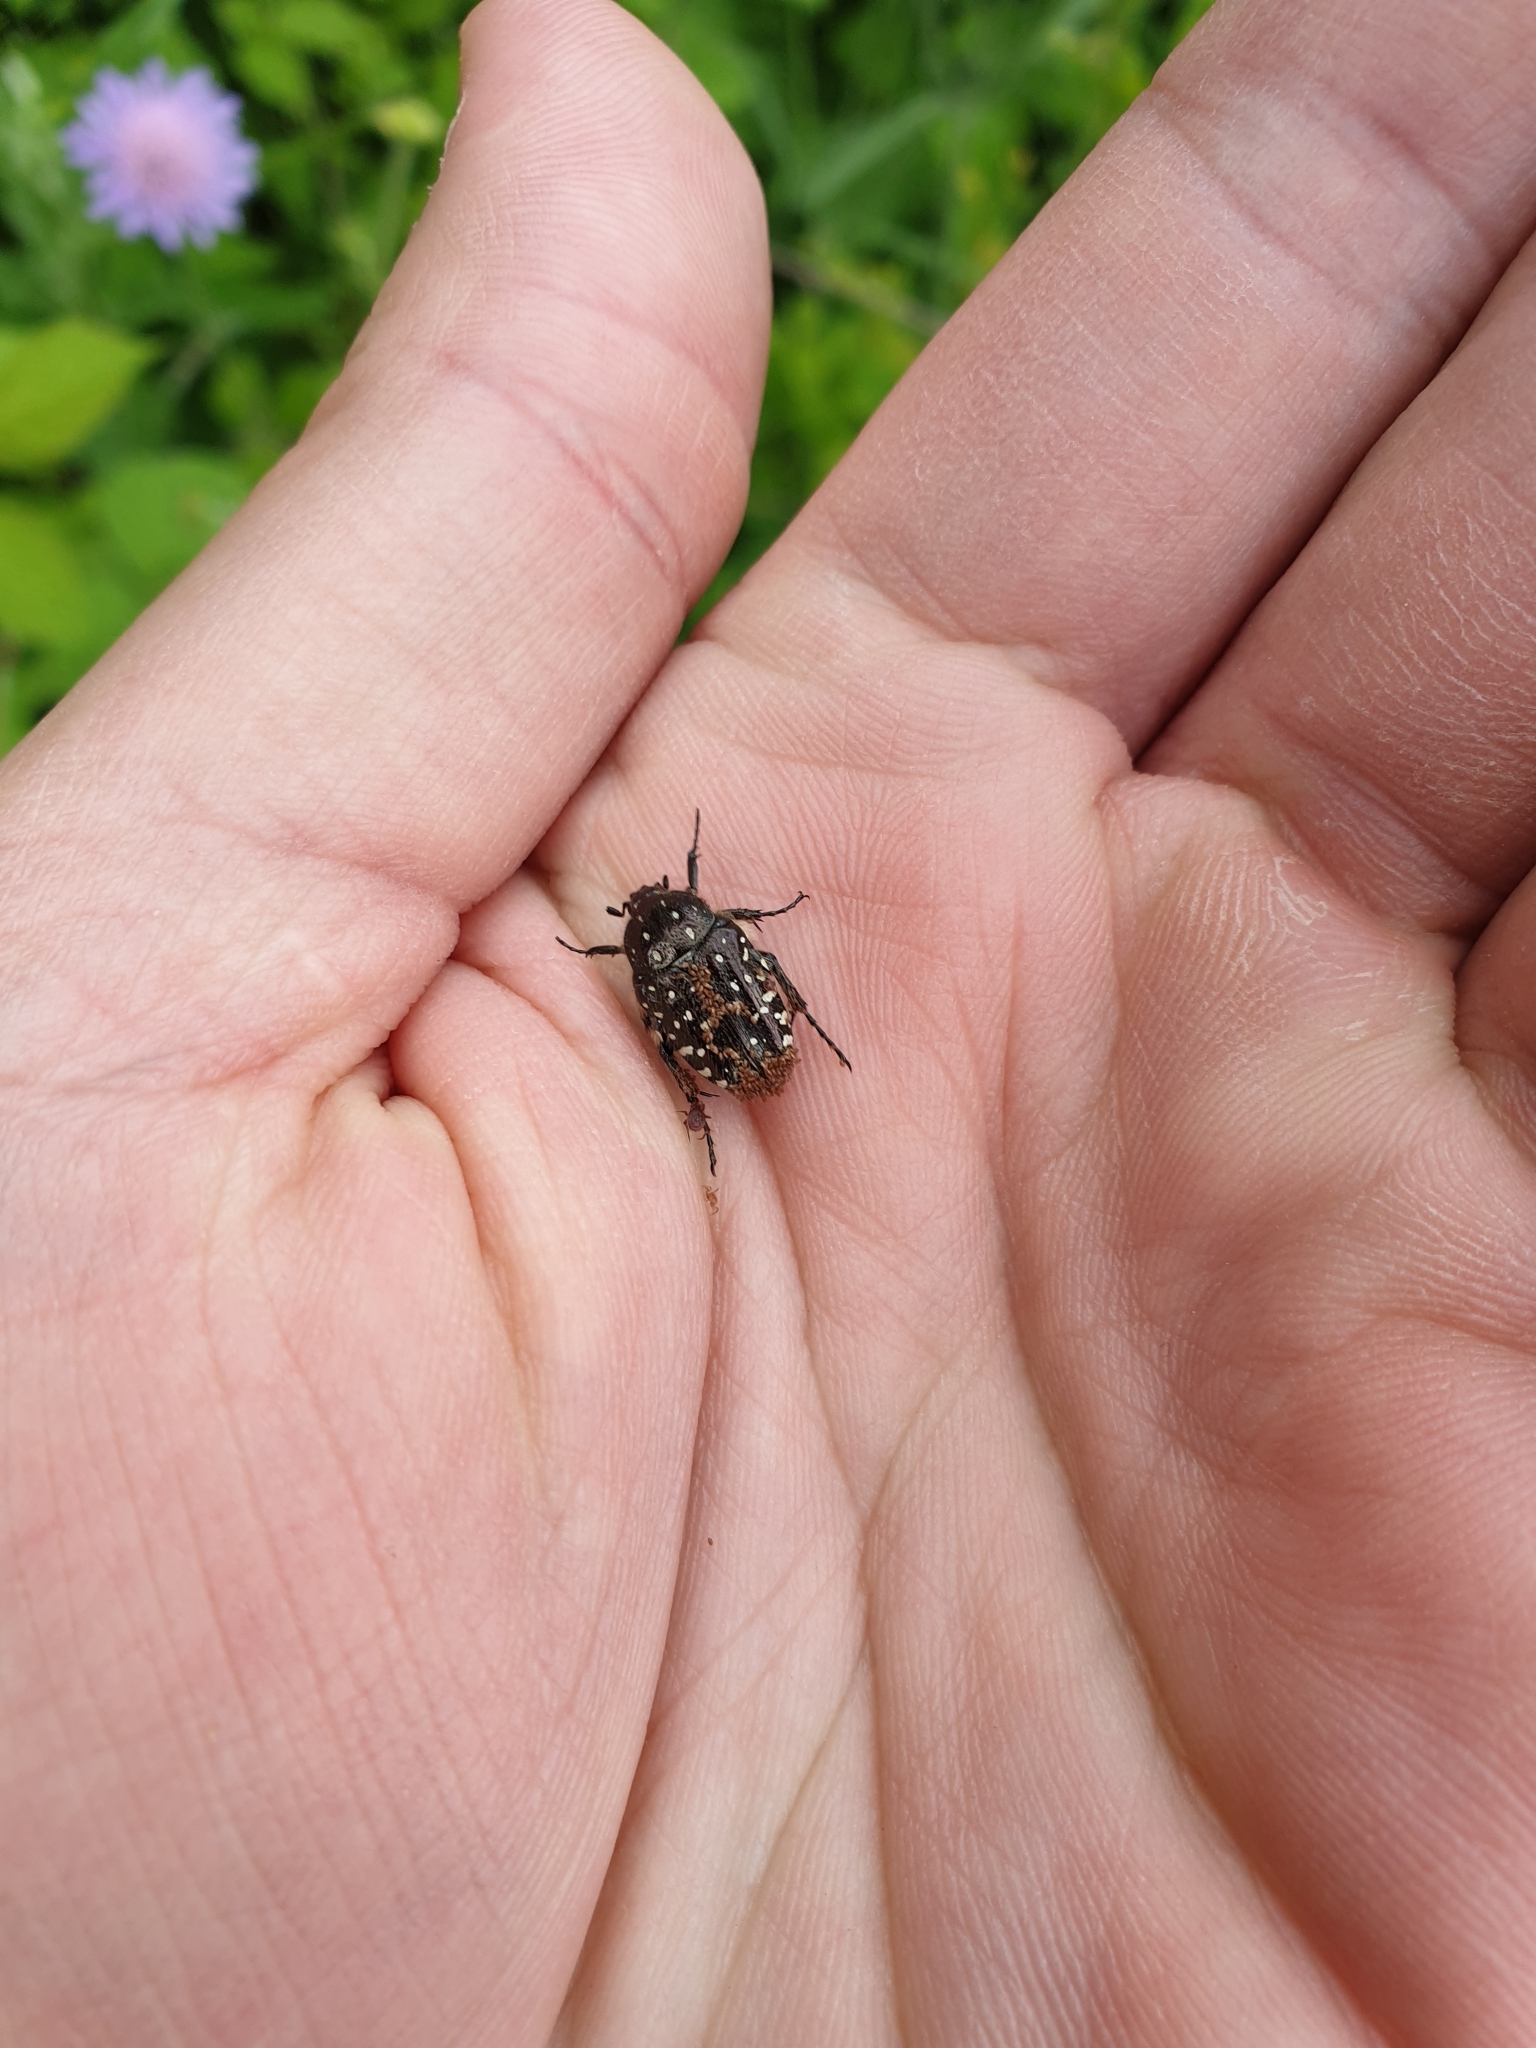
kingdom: Animalia
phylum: Arthropoda
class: Insecta
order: Coleoptera
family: Scarabaeidae
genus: Oxythyrea
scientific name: Oxythyrea funesta
